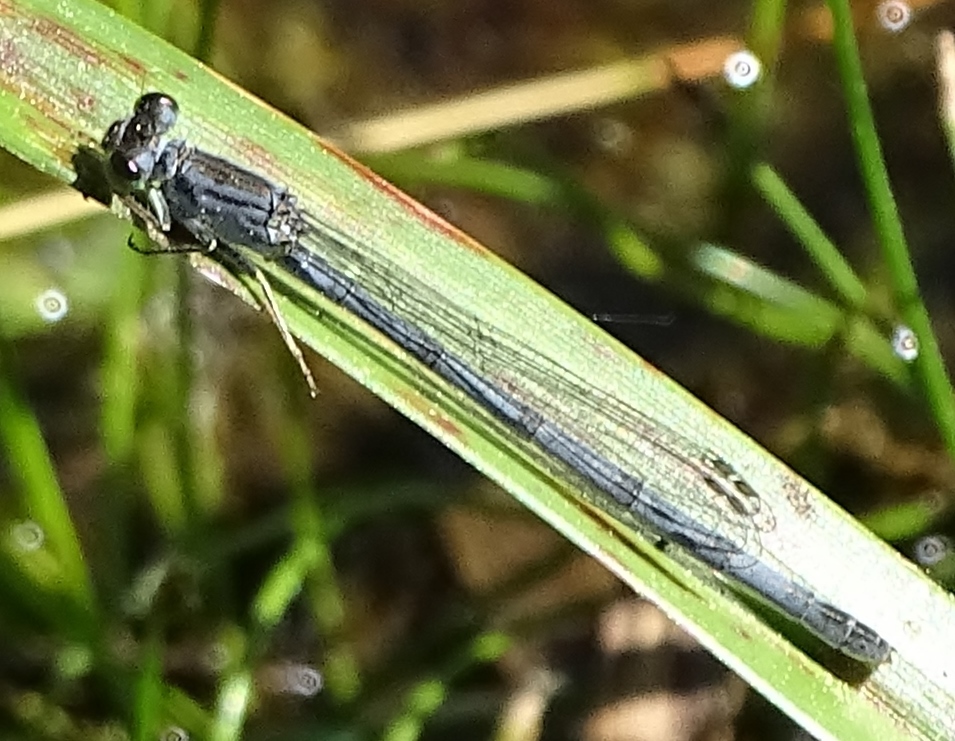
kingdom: Animalia
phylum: Arthropoda
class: Insecta
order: Odonata
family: Coenagrionidae
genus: Ischnura
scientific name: Ischnura verticalis
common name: Eastern forktail
